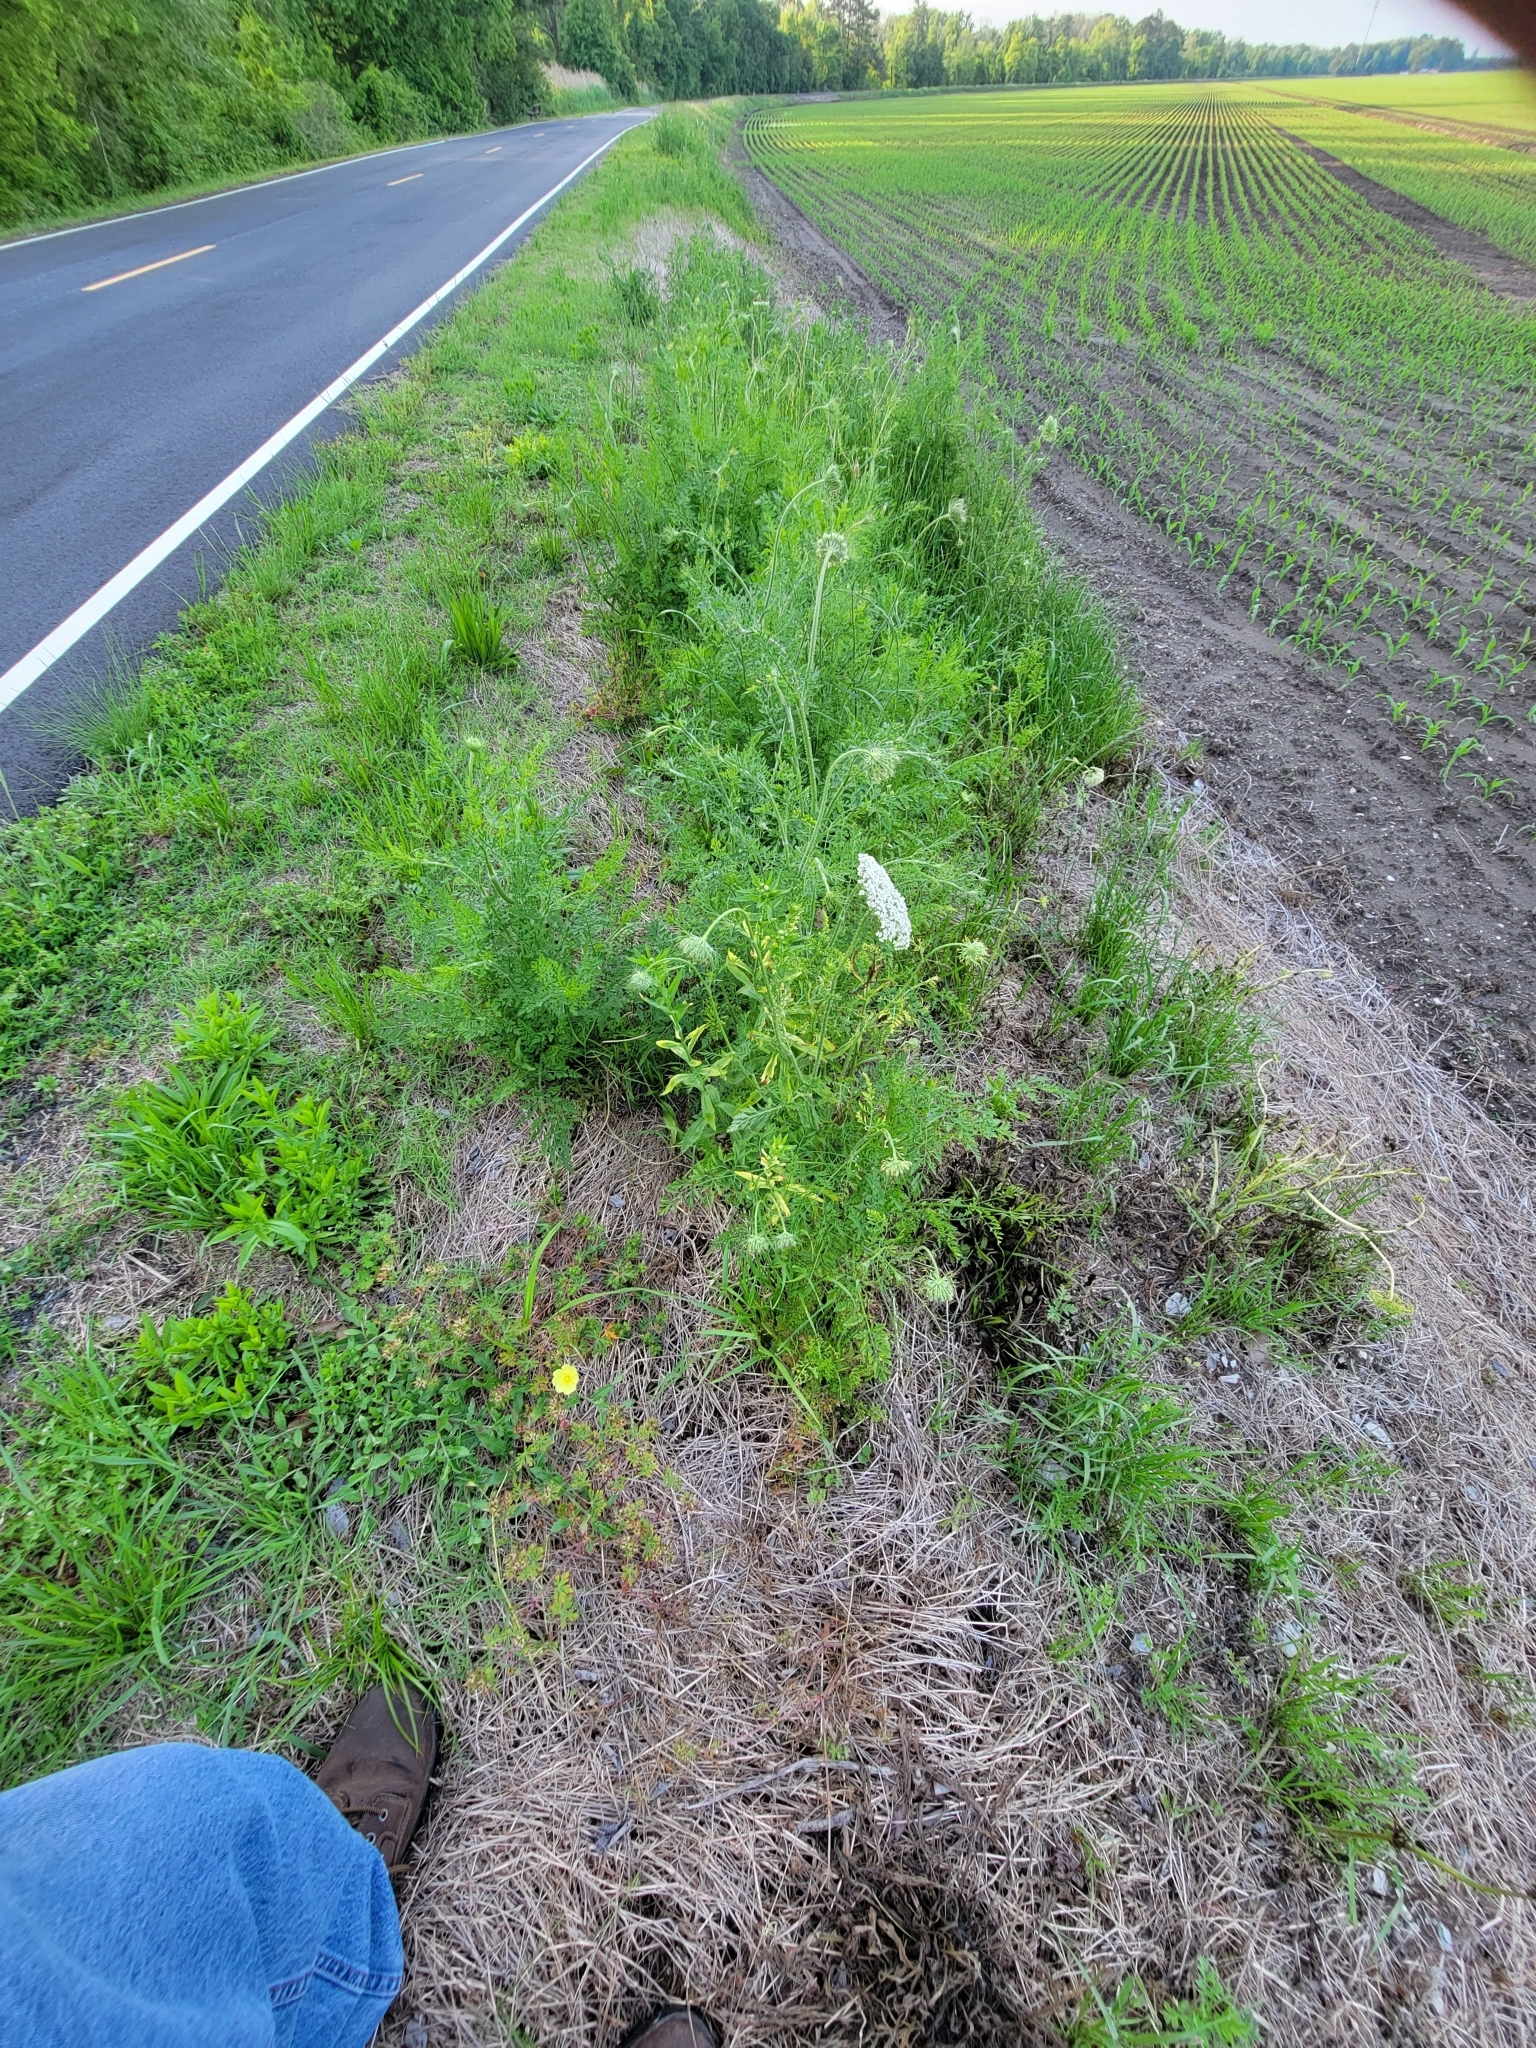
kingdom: Plantae
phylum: Tracheophyta
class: Magnoliopsida
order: Apiales
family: Apiaceae
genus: Daucus
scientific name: Daucus carota
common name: Wild carrot
